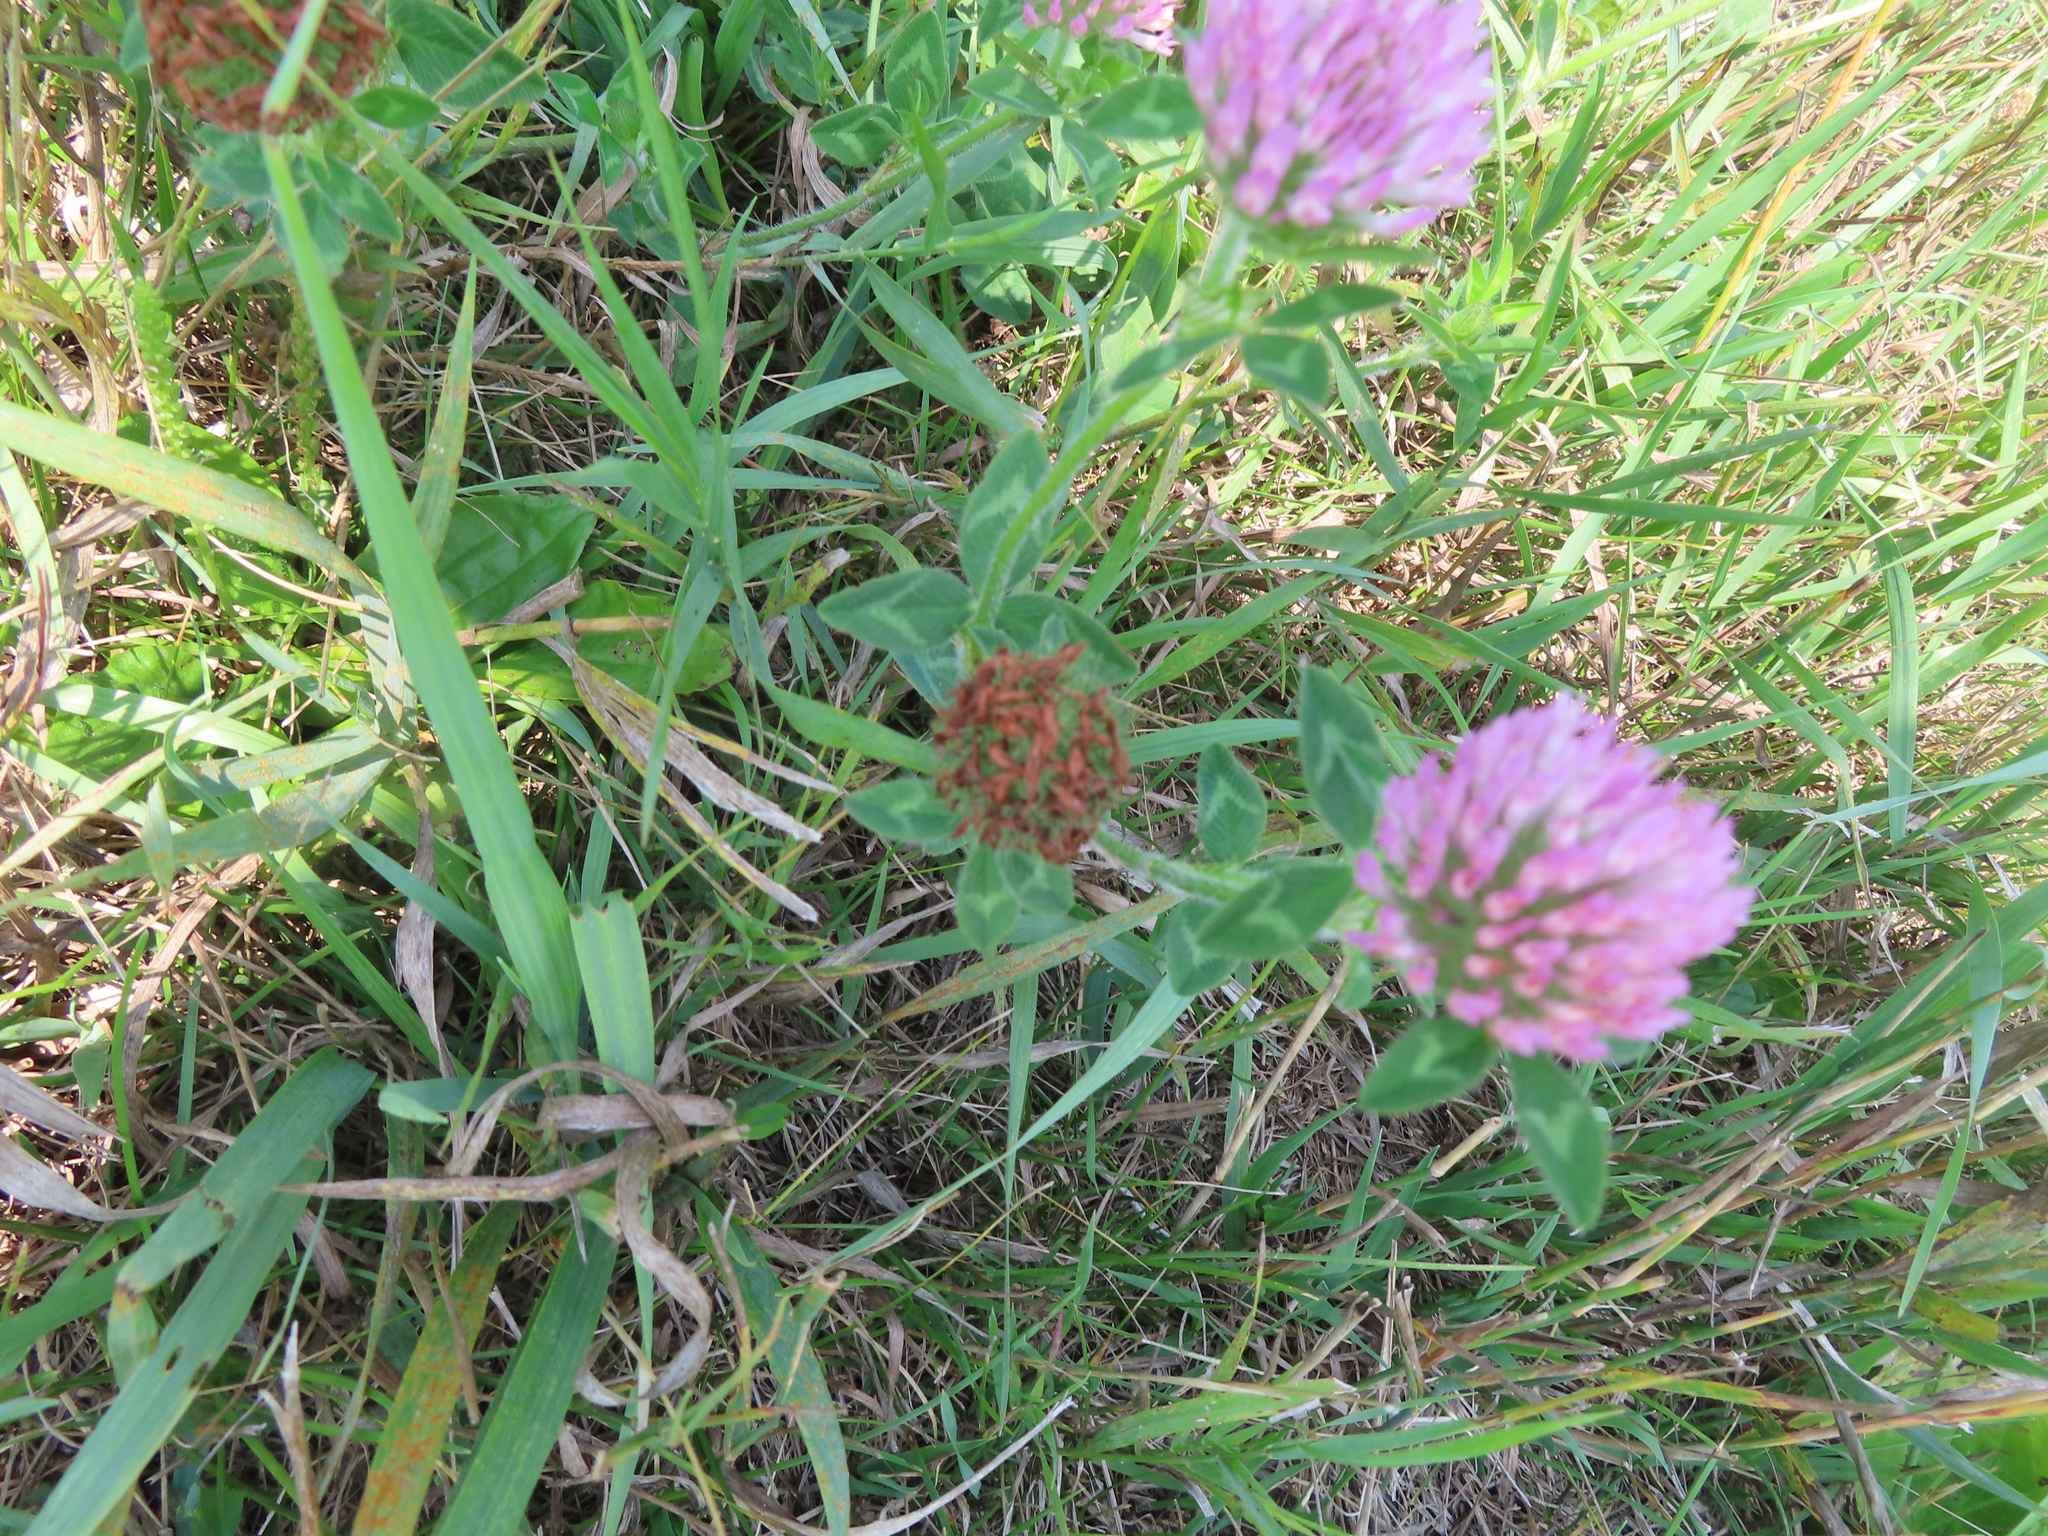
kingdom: Plantae
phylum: Tracheophyta
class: Magnoliopsida
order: Fabales
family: Fabaceae
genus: Trifolium
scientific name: Trifolium pratense
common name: Red clover
